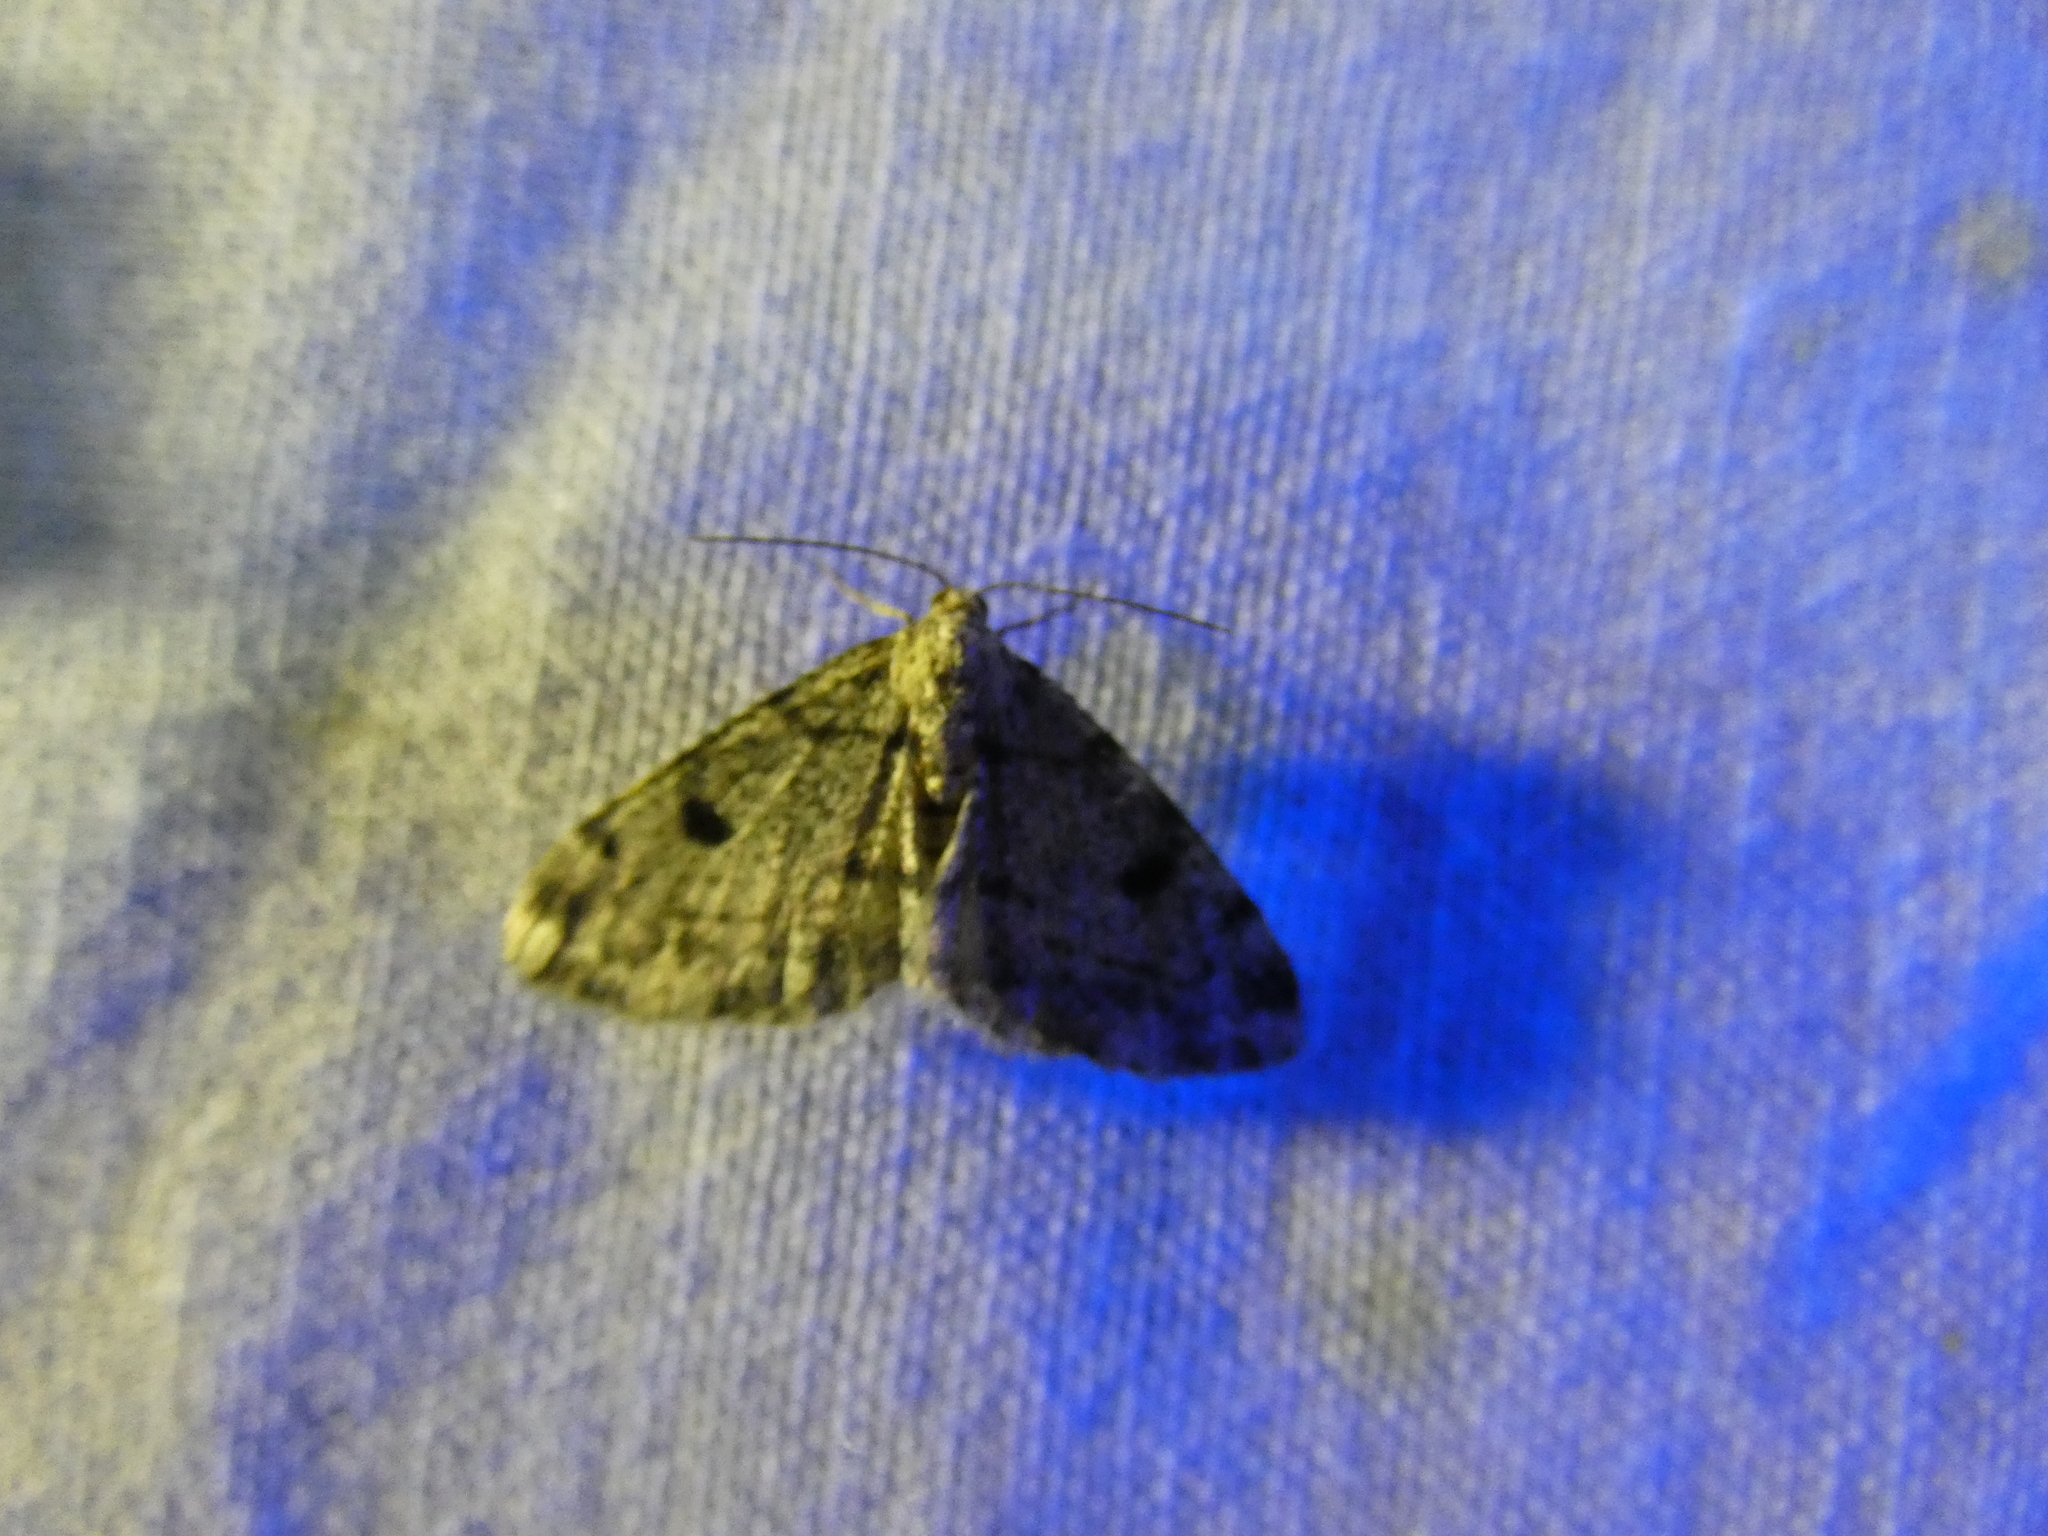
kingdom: Animalia
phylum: Arthropoda
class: Insecta
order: Lepidoptera
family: Geometridae
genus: Alcis
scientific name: Alcis jubata
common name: Dotted carpet
